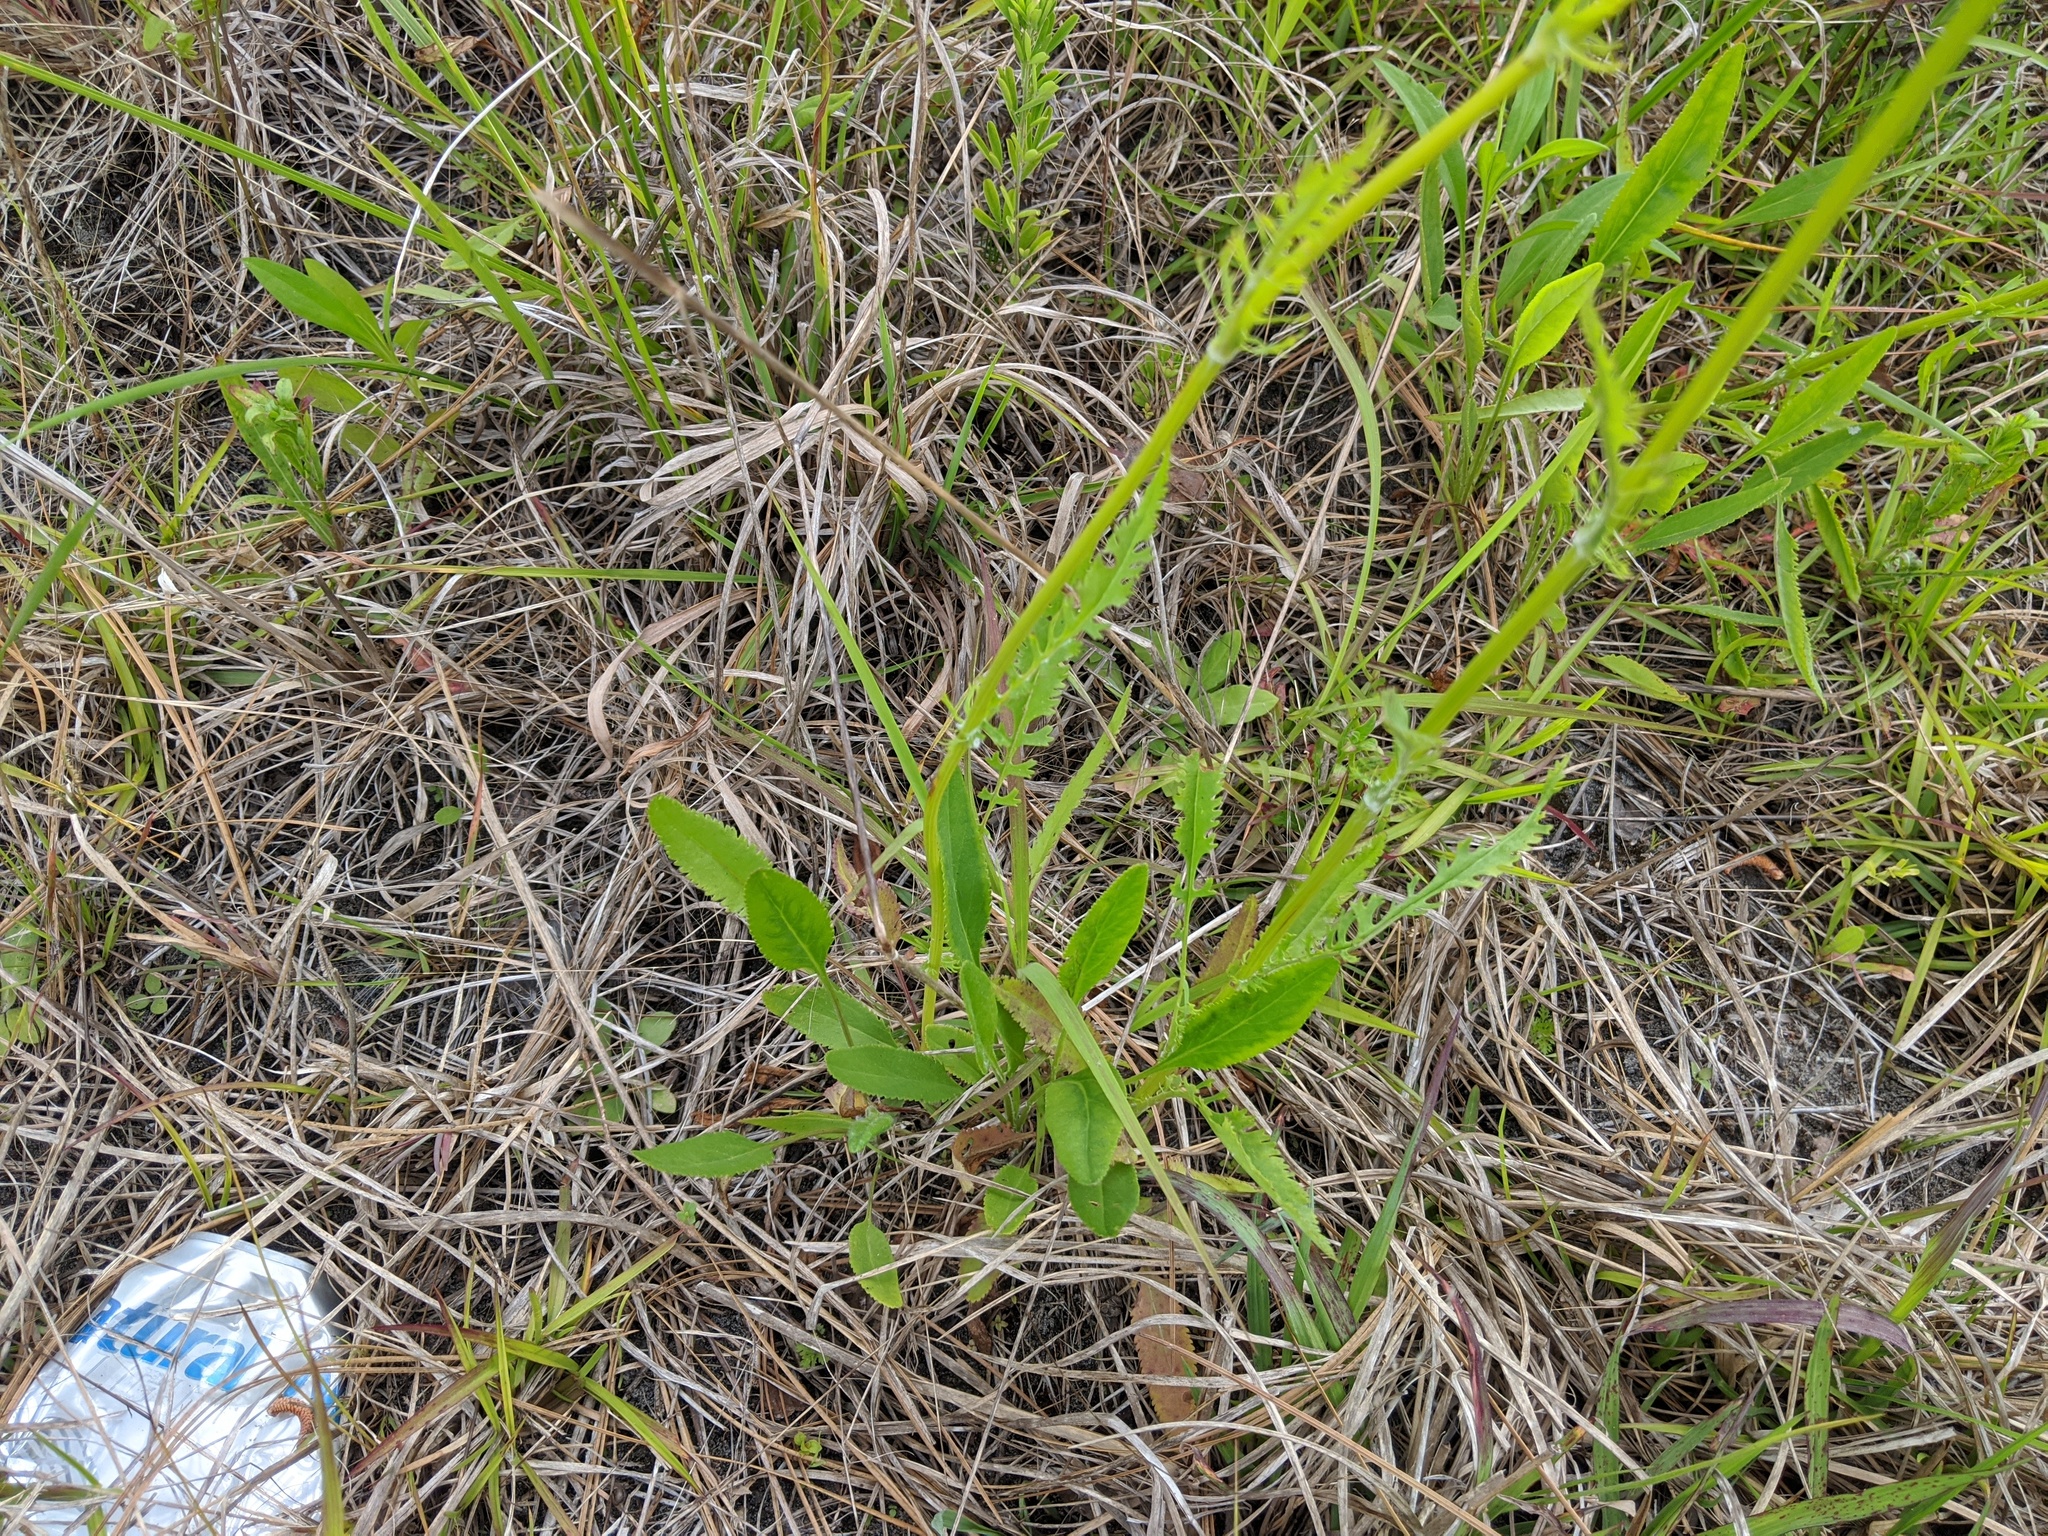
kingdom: Plantae
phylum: Tracheophyta
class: Magnoliopsida
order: Asterales
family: Asteraceae
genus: Packera
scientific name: Packera anonyma
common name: Small ragwort
